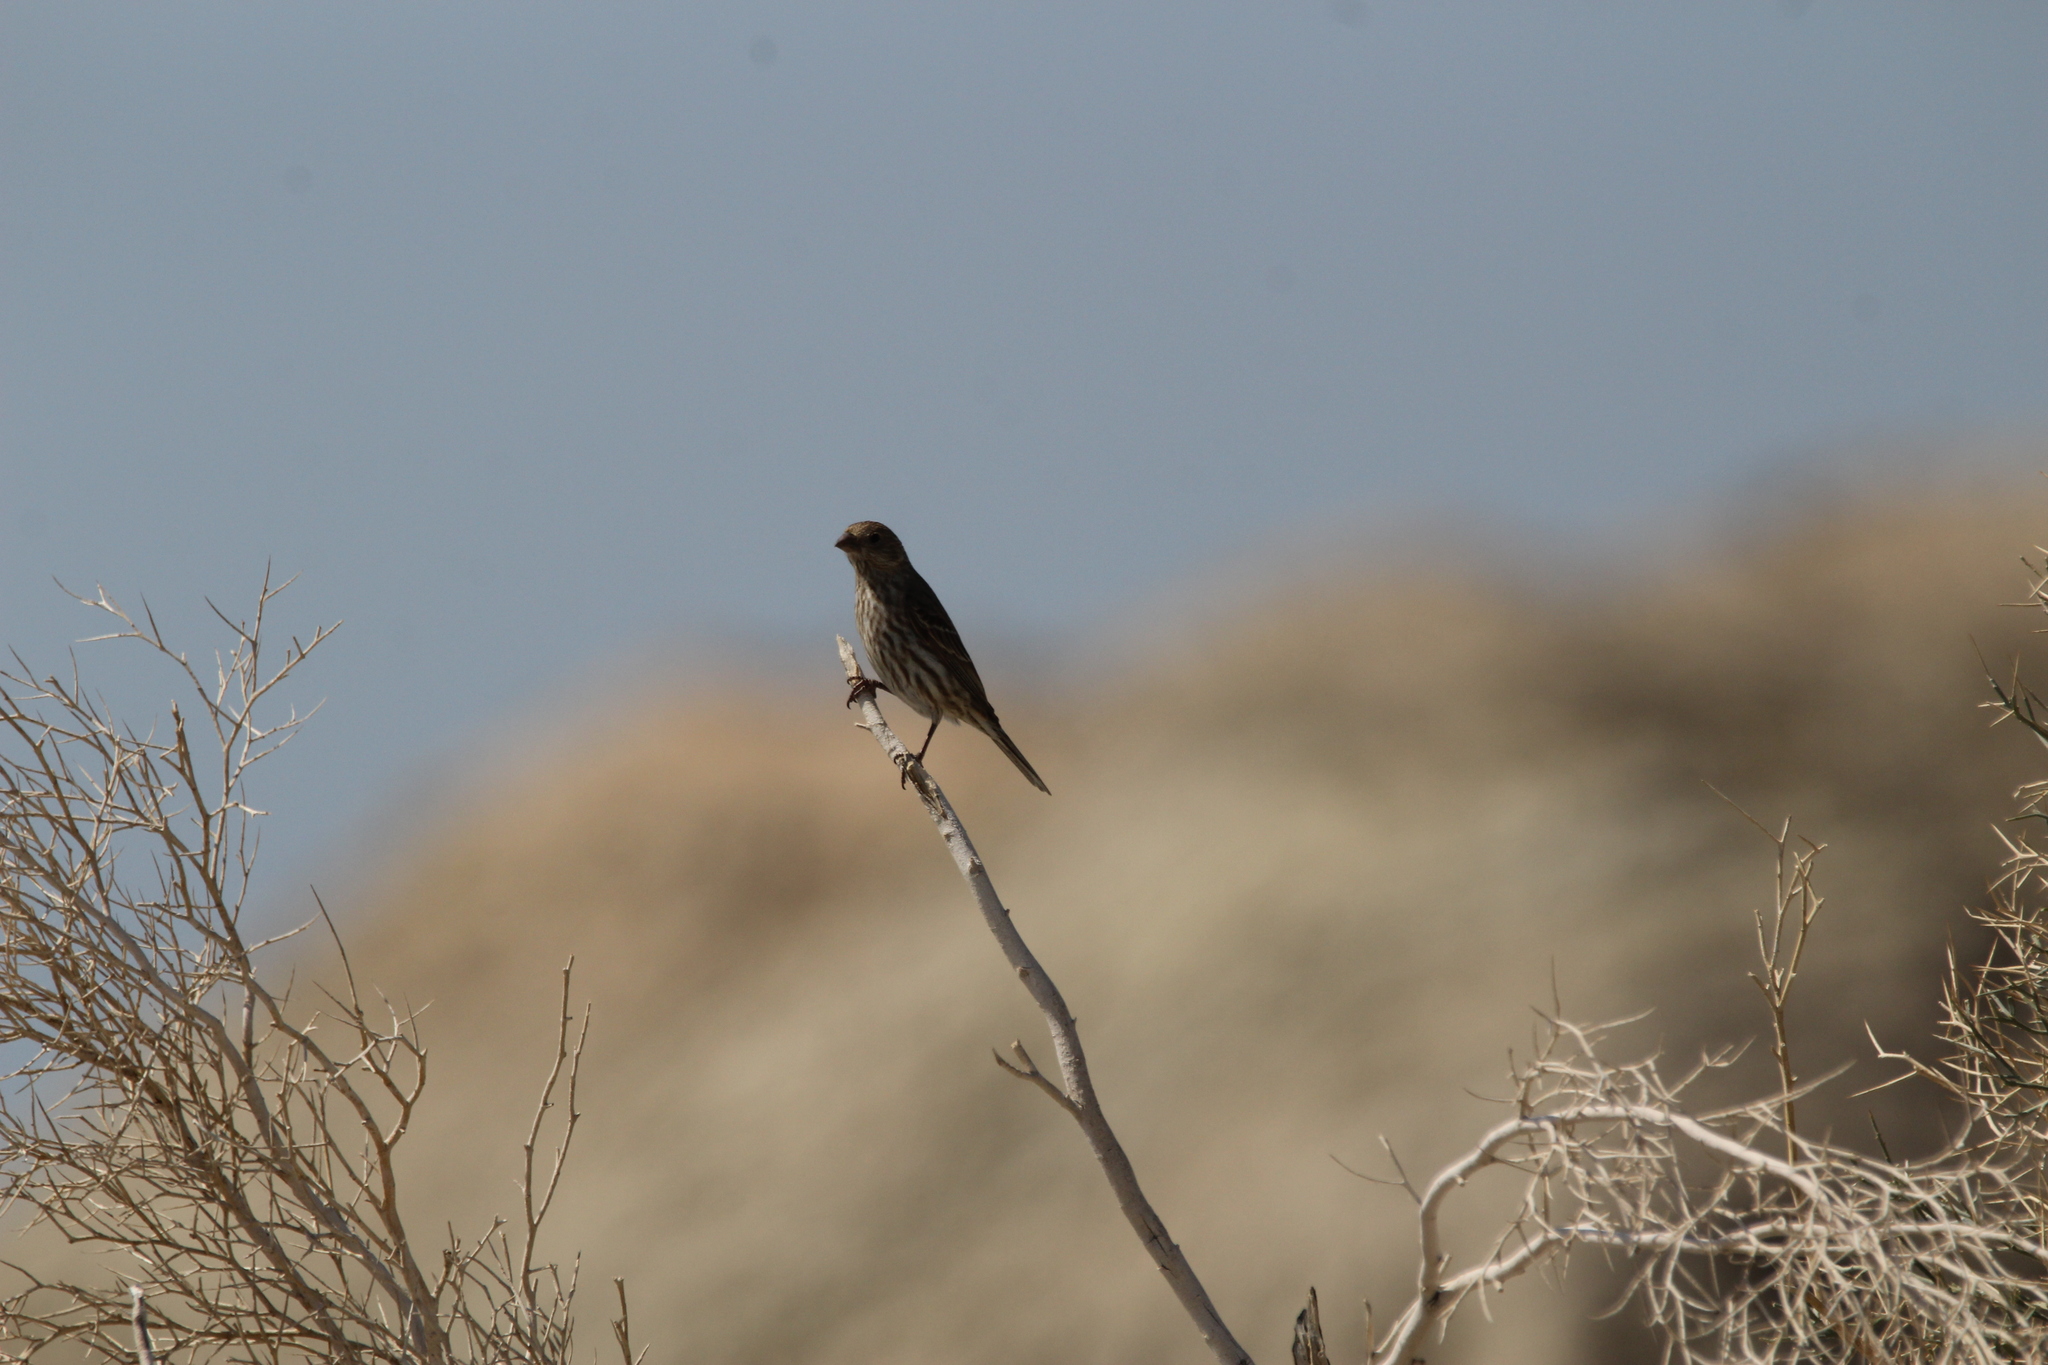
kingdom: Animalia
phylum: Chordata
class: Aves
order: Passeriformes
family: Fringillidae
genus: Haemorhous
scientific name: Haemorhous mexicanus
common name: House finch
